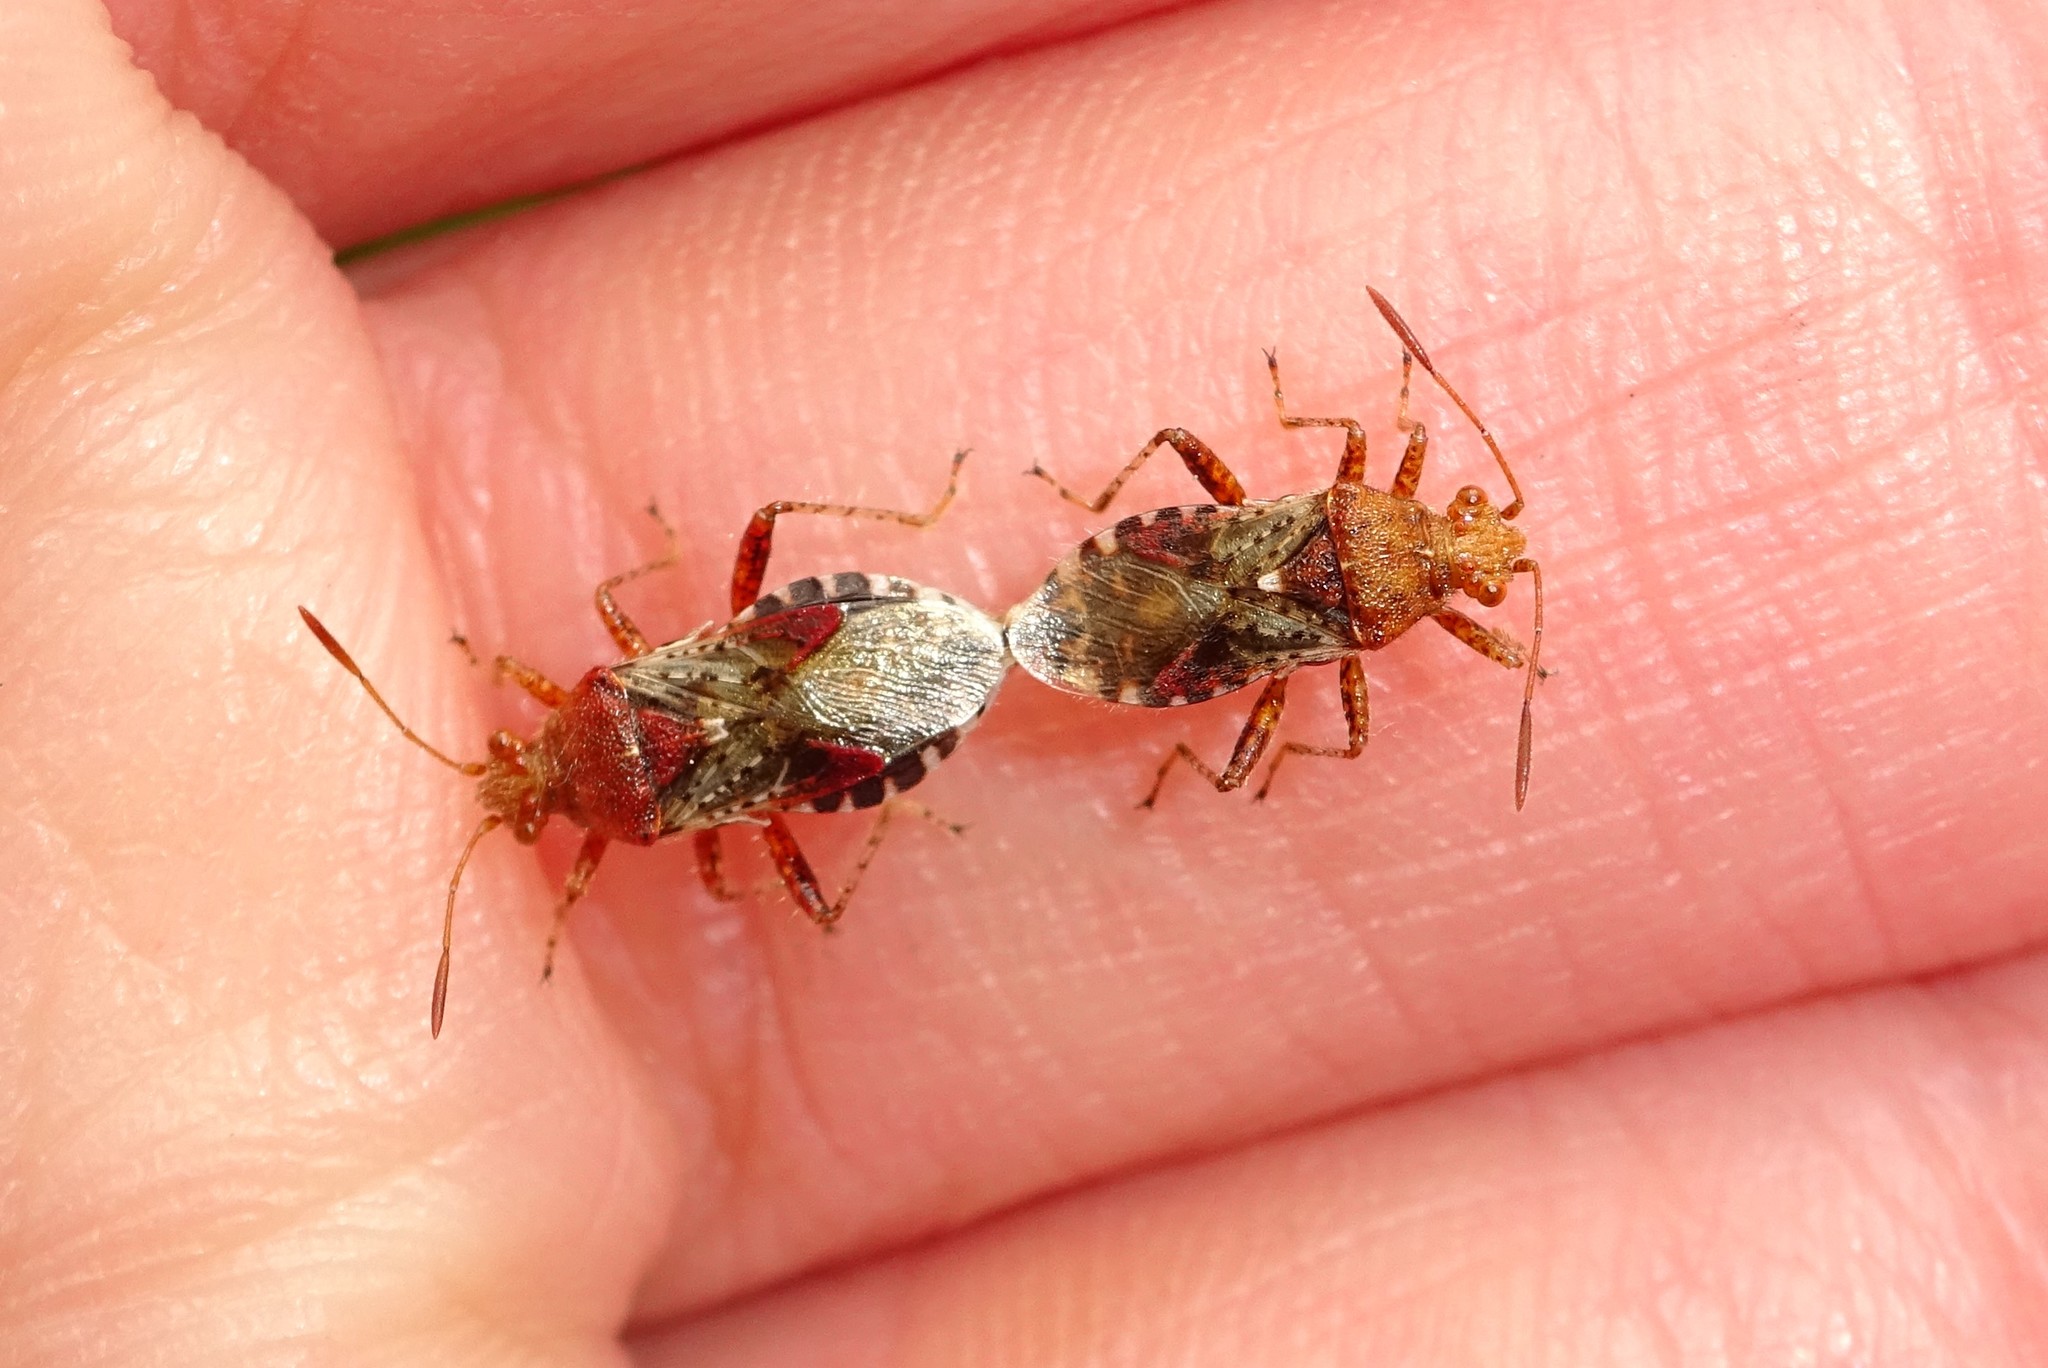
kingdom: Animalia
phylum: Arthropoda
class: Insecta
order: Hemiptera
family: Rhopalidae
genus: Rhopalus
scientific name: Rhopalus subrufus
